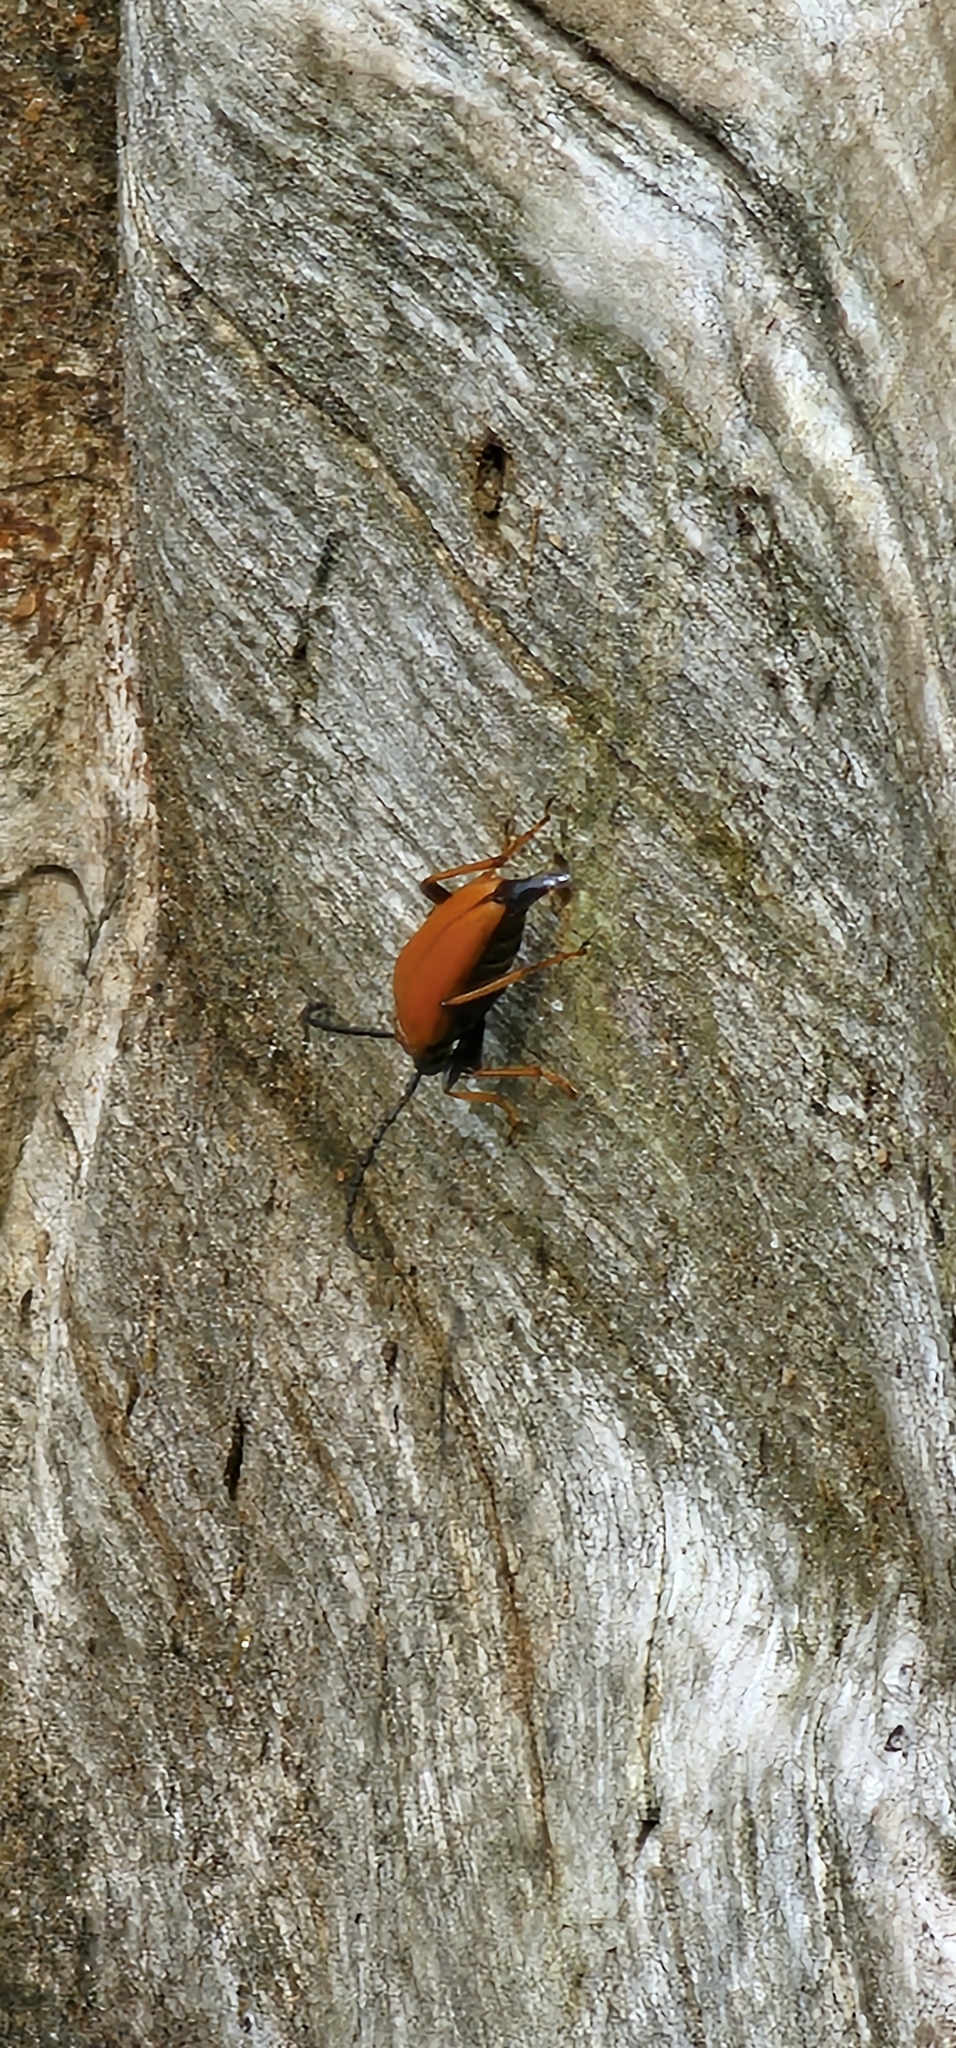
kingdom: Animalia
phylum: Arthropoda
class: Insecta
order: Coleoptera
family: Cerambycidae
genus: Stictoleptura
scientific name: Stictoleptura rubra
